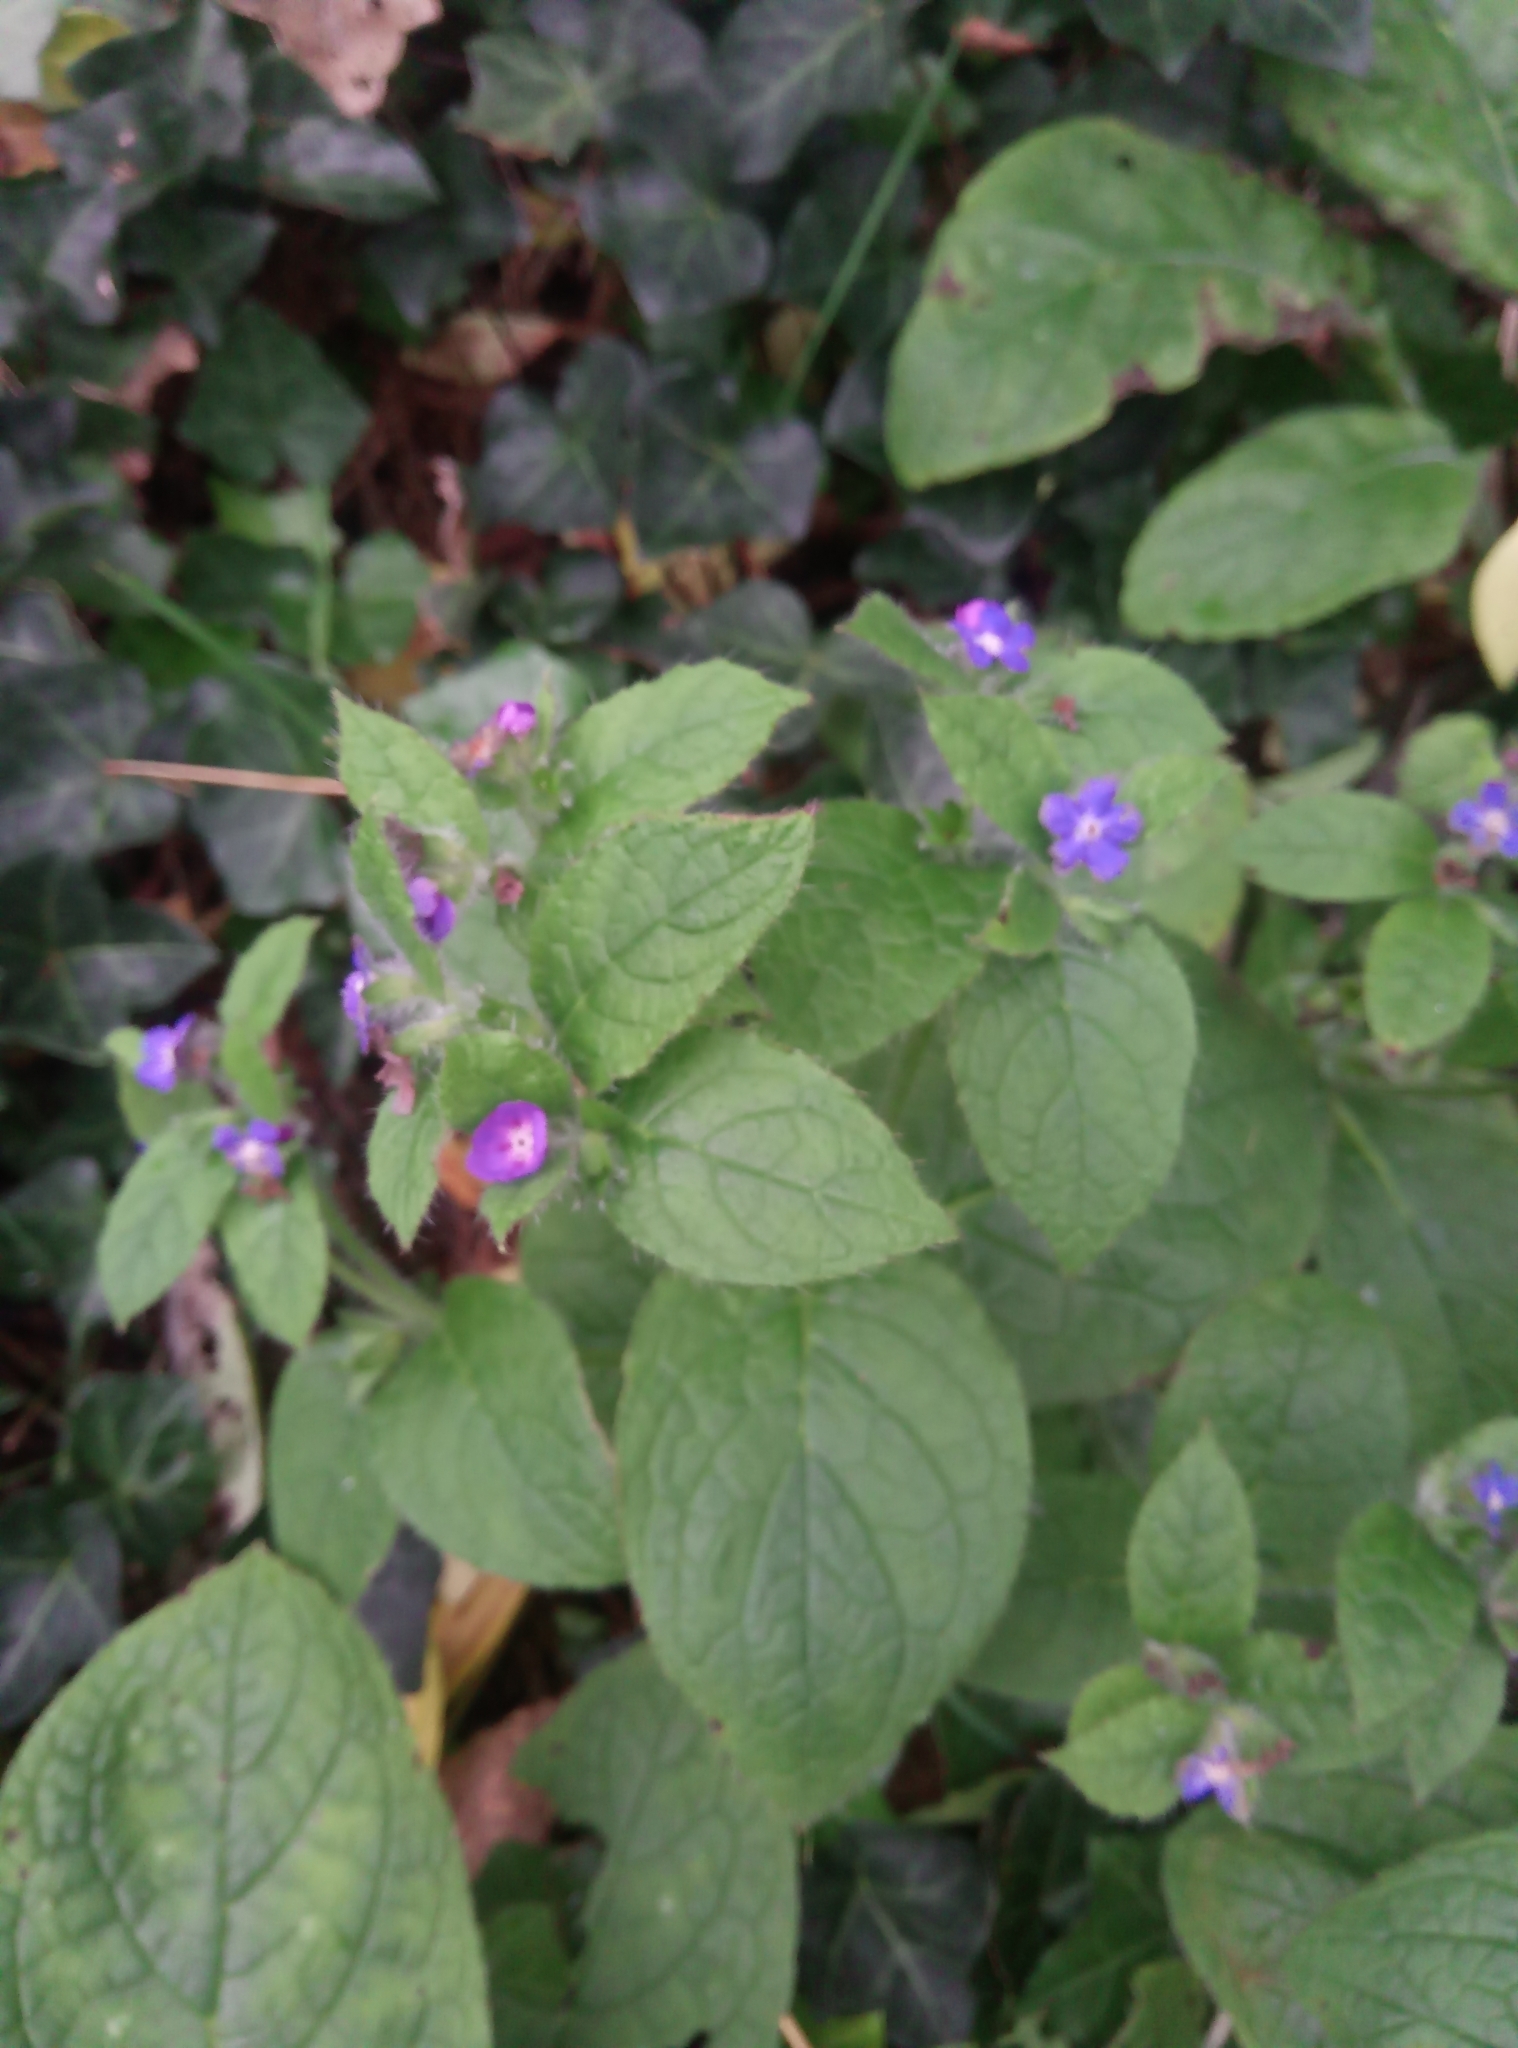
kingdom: Plantae
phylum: Tracheophyta
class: Magnoliopsida
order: Boraginales
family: Boraginaceae
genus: Pentaglottis
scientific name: Pentaglottis sempervirens
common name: Green alkanet
